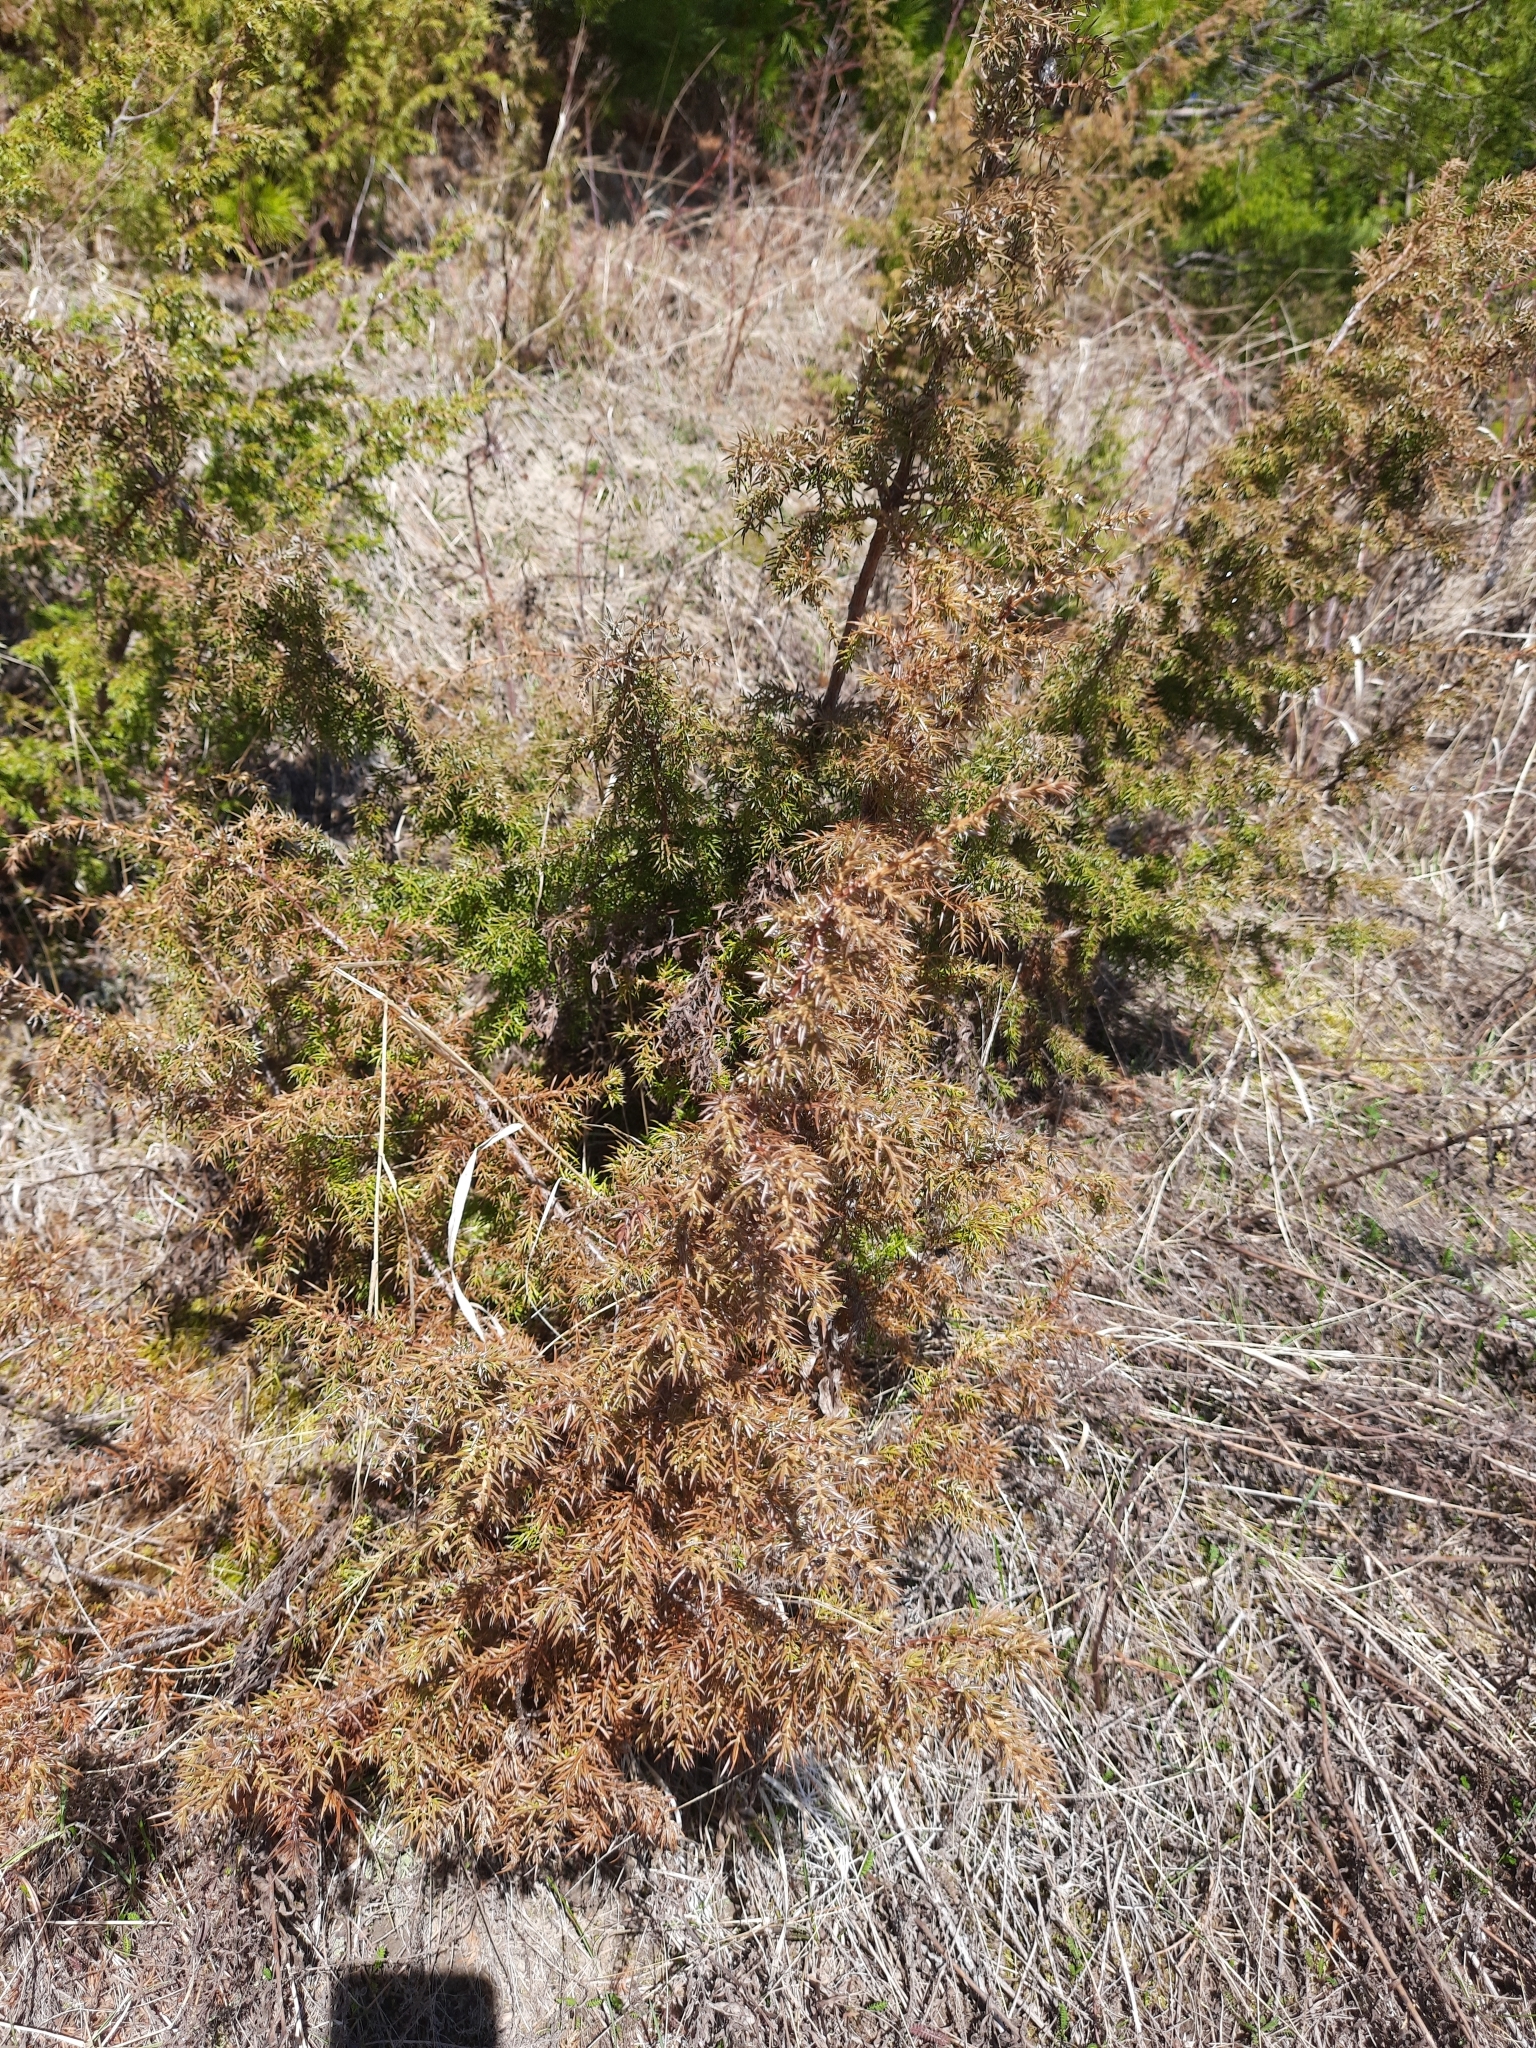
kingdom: Plantae
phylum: Tracheophyta
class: Pinopsida
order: Pinales
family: Cupressaceae
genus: Juniperus
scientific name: Juniperus communis
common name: Common juniper
